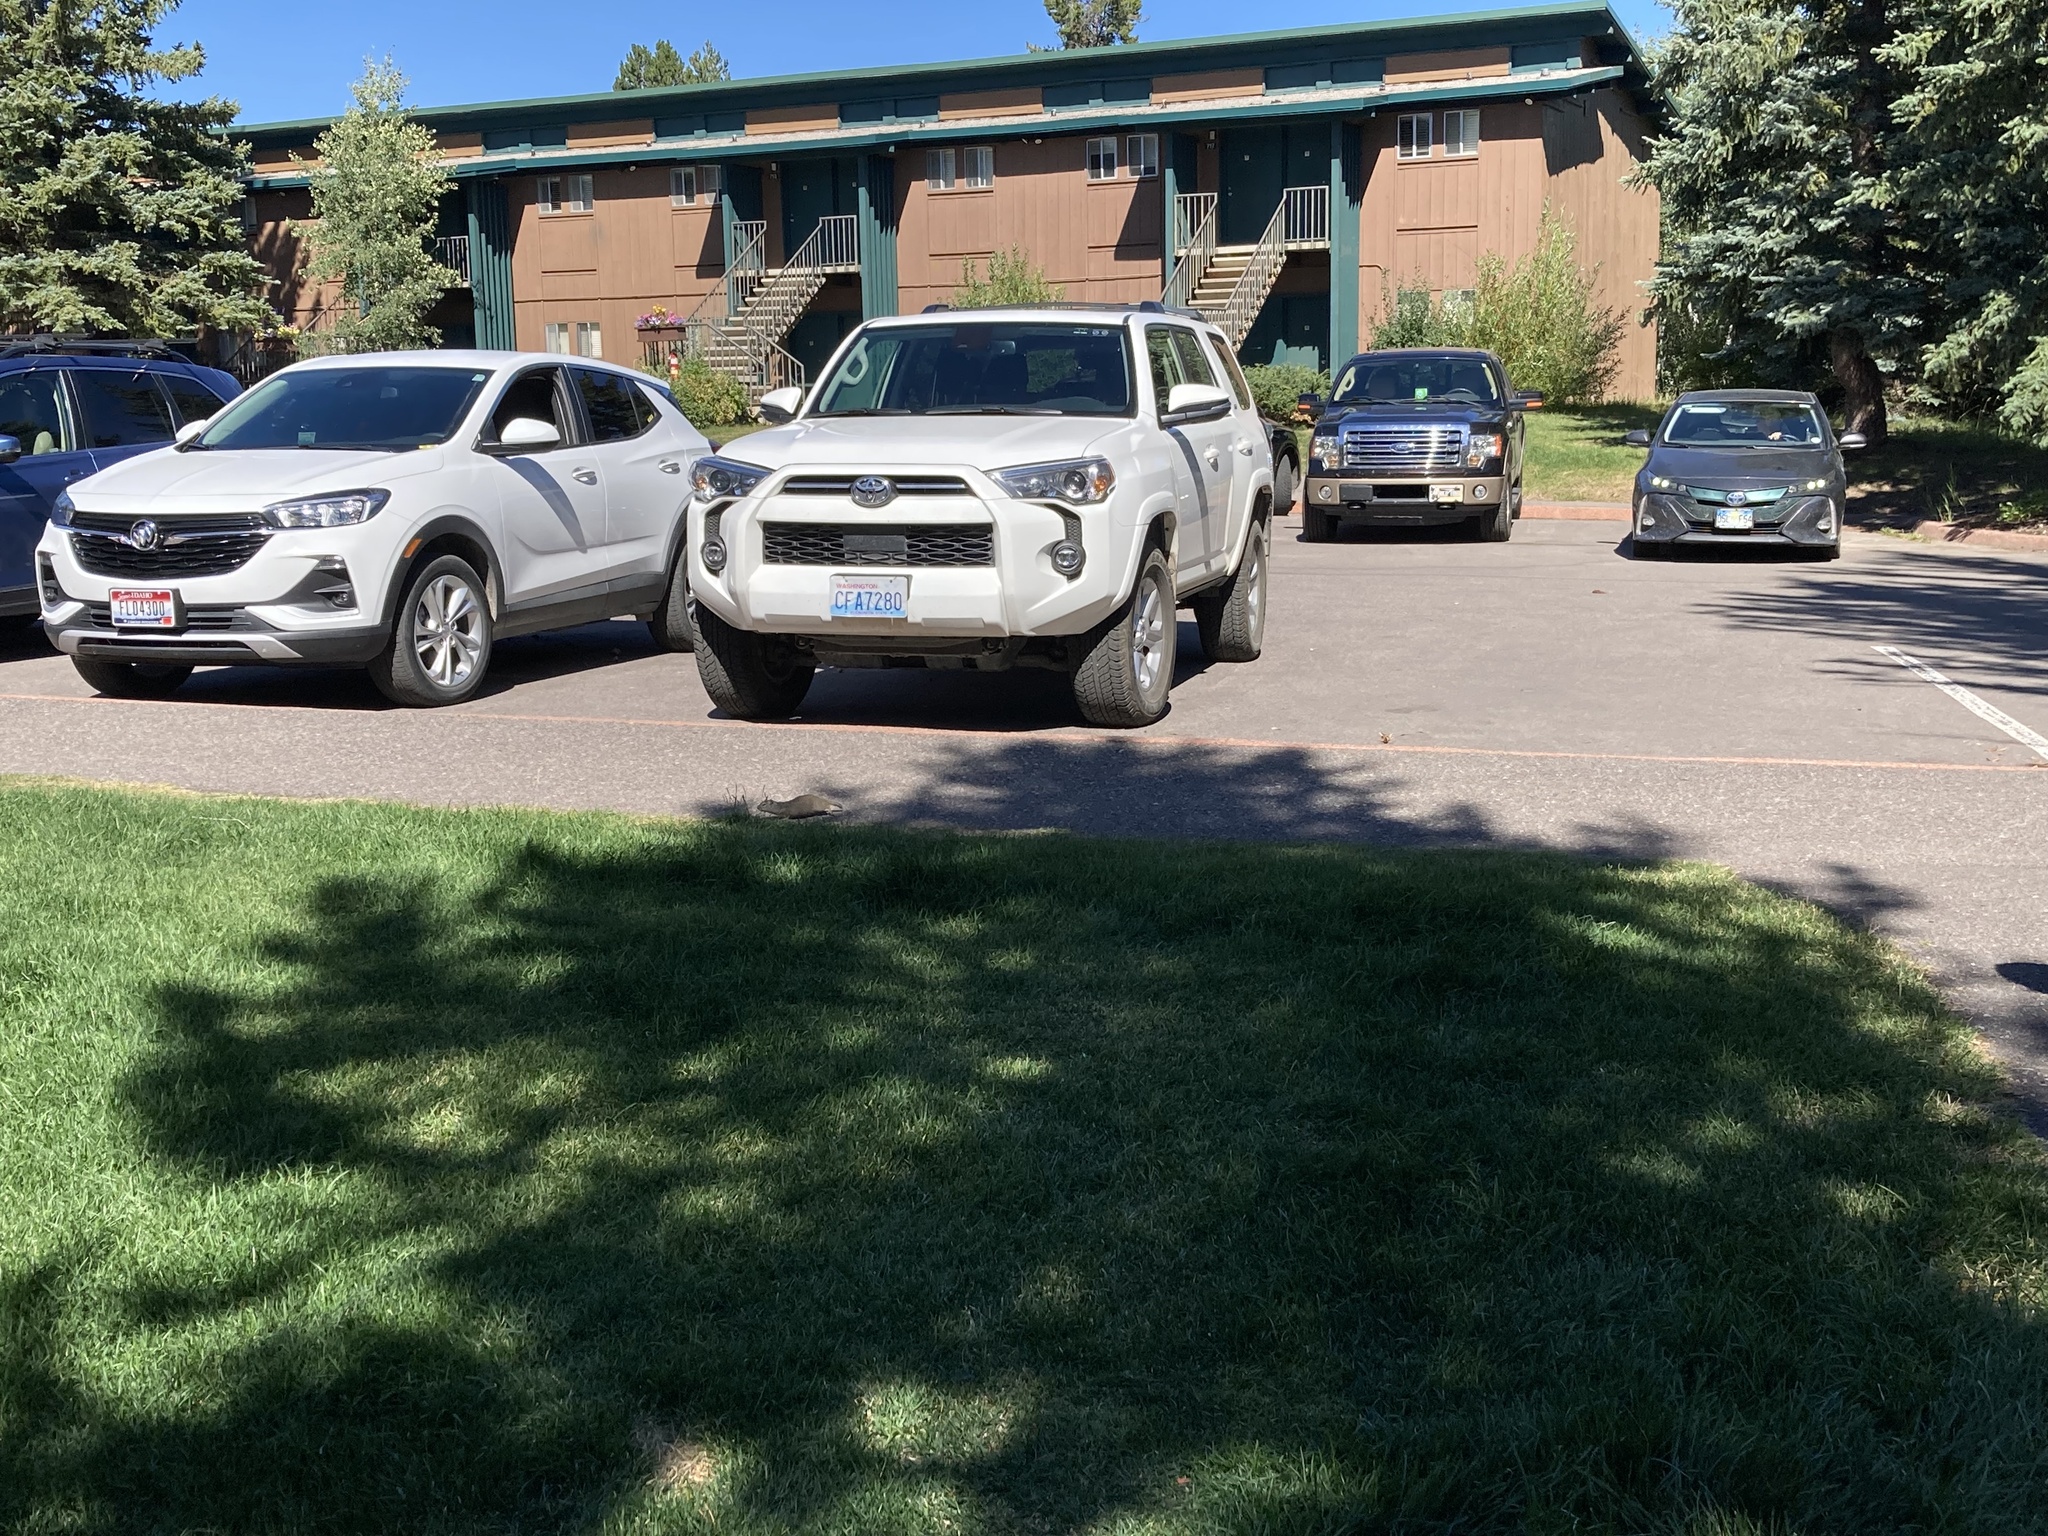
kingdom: Animalia
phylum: Chordata
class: Mammalia
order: Rodentia
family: Sciuridae
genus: Urocitellus
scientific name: Urocitellus armatus
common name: Uinta ground squirrel
